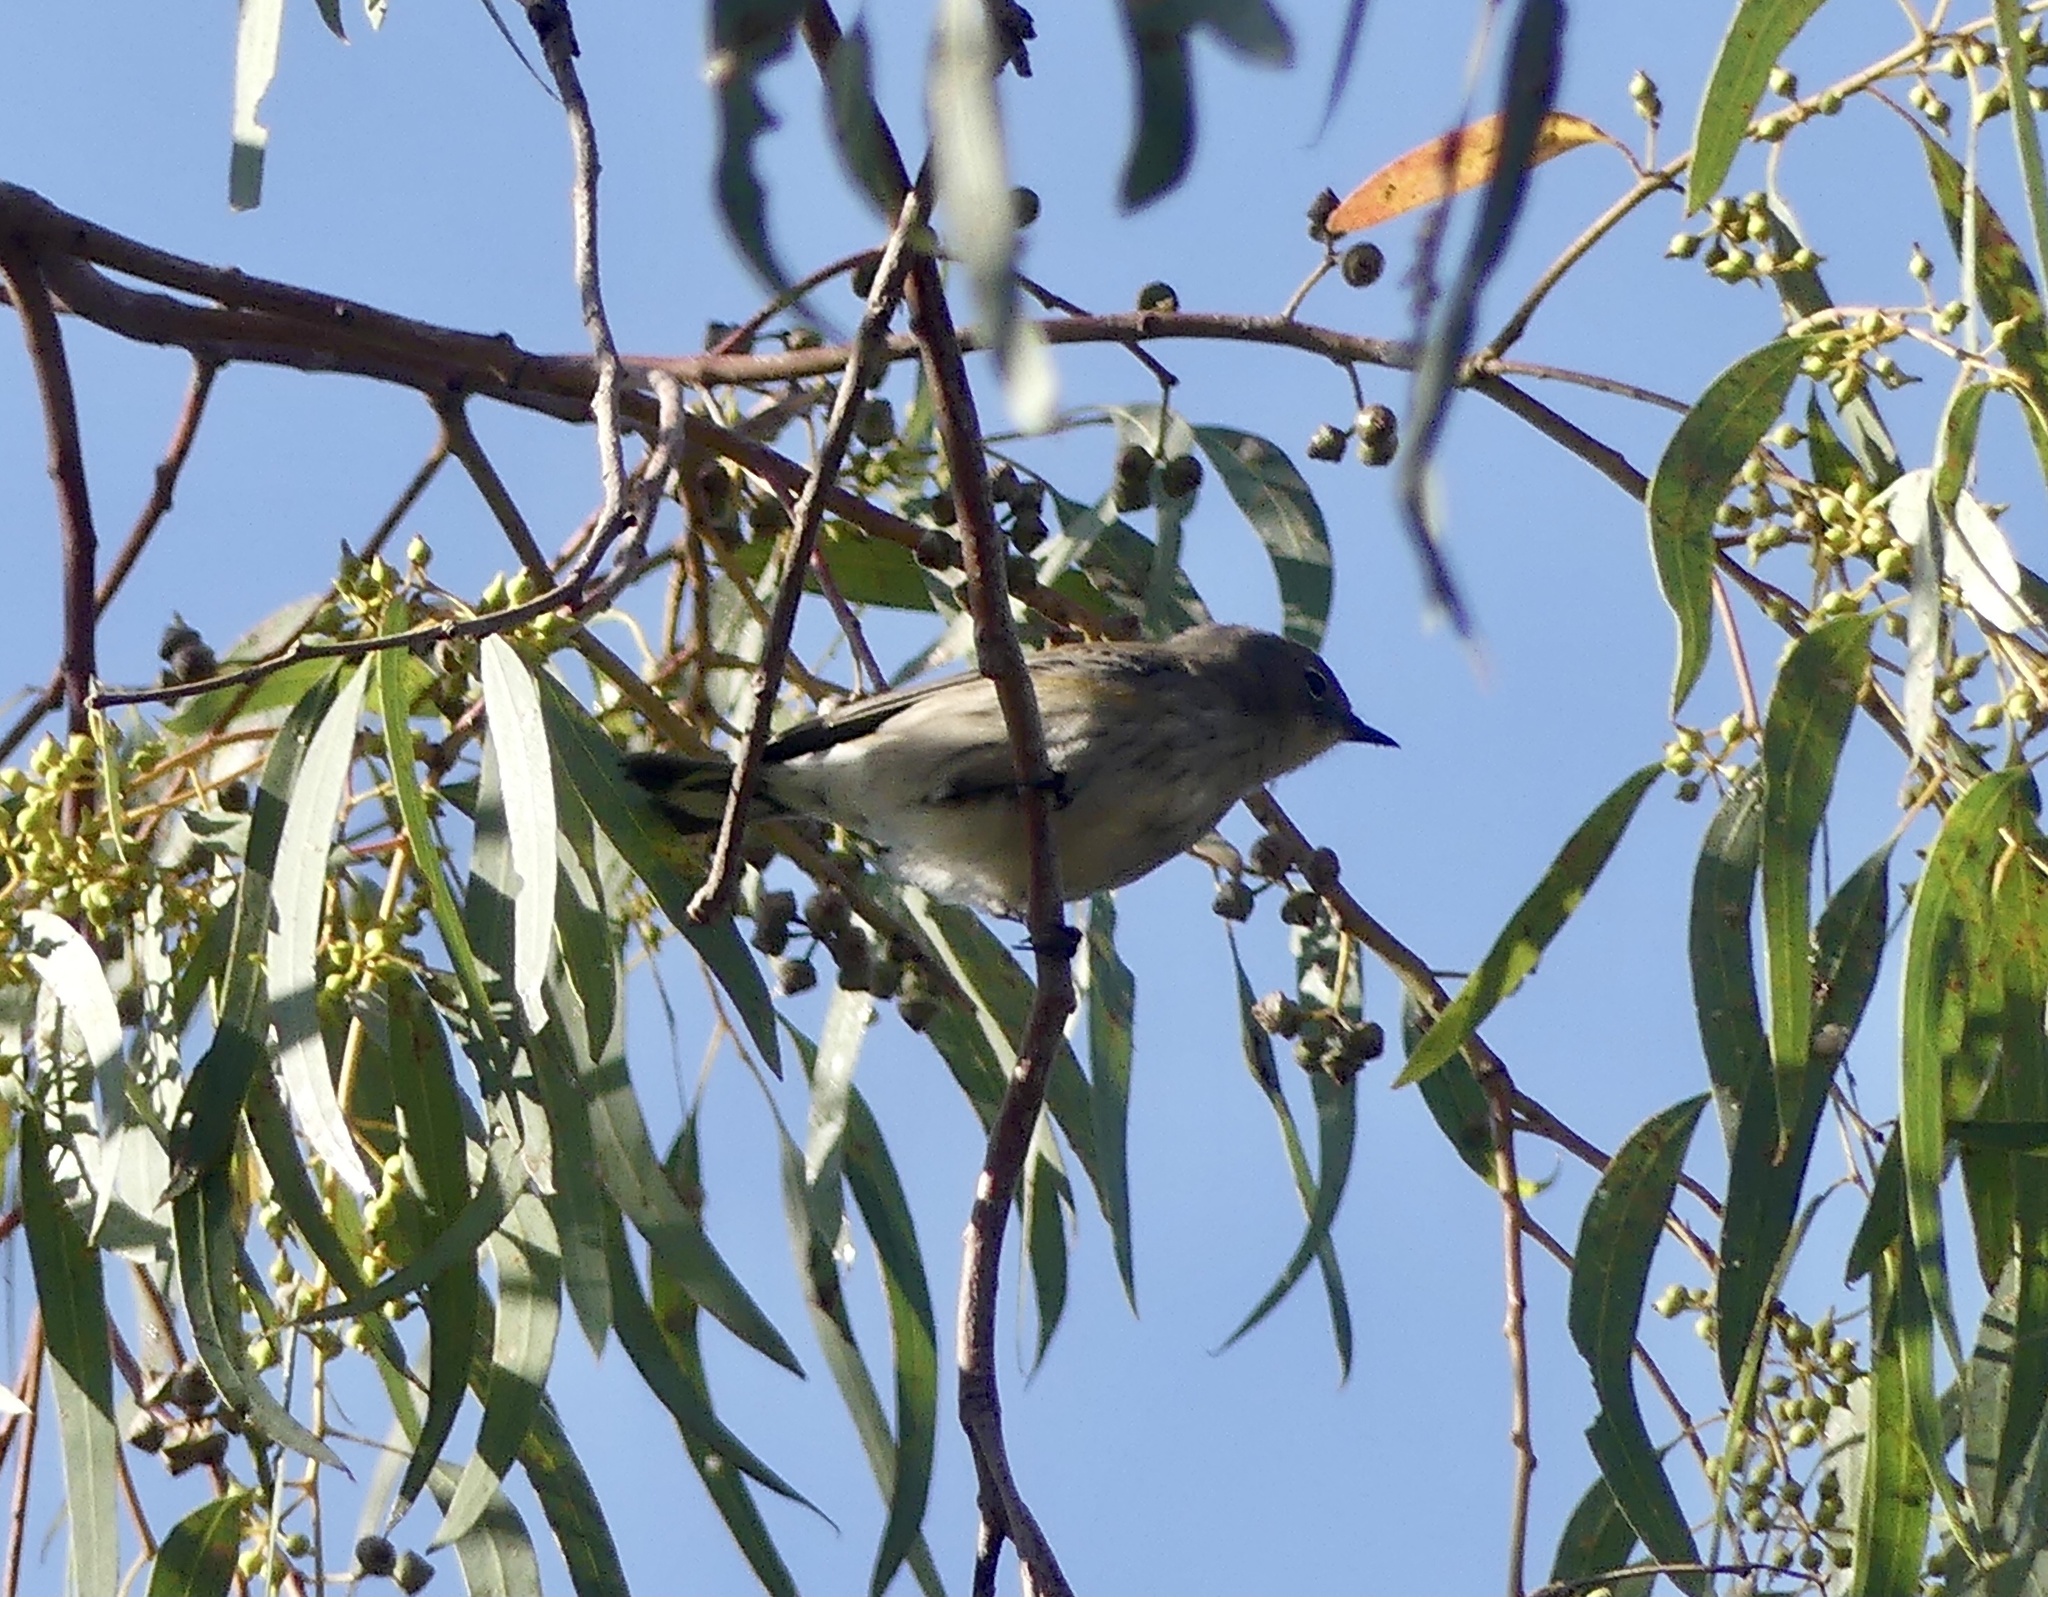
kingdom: Animalia
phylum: Chordata
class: Aves
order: Passeriformes
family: Parulidae
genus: Setophaga
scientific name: Setophaga coronata
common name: Myrtle warbler
